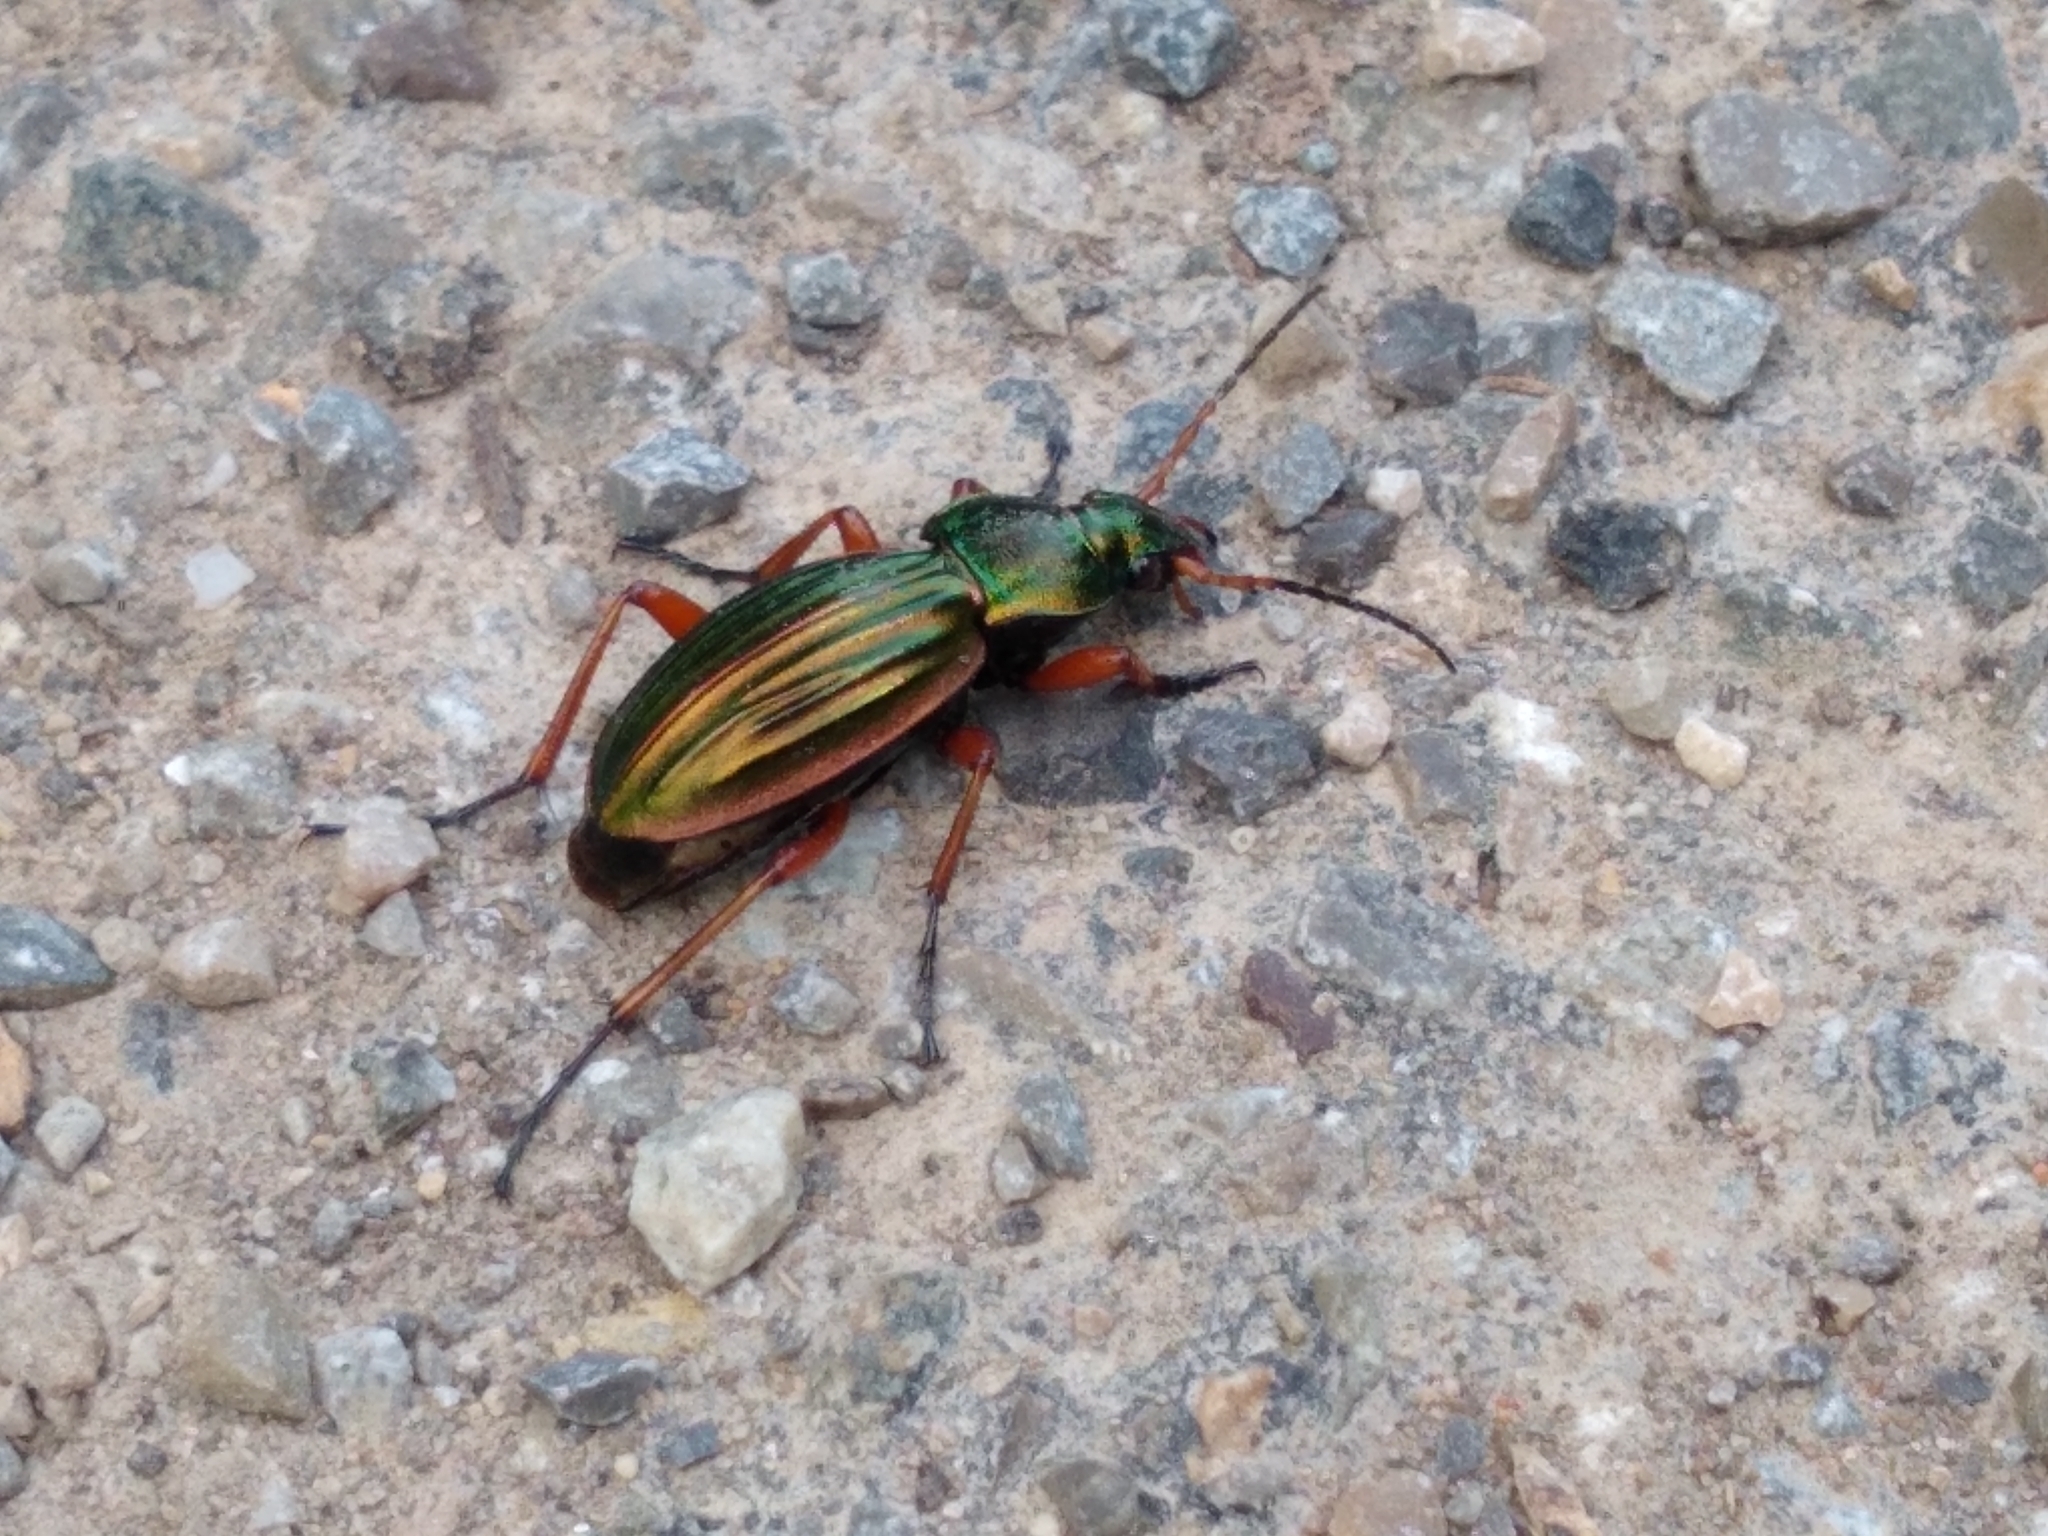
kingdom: Animalia
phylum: Arthropoda
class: Insecta
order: Coleoptera
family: Carabidae
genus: Carabus
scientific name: Carabus auratus
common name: Golden ground beetle
